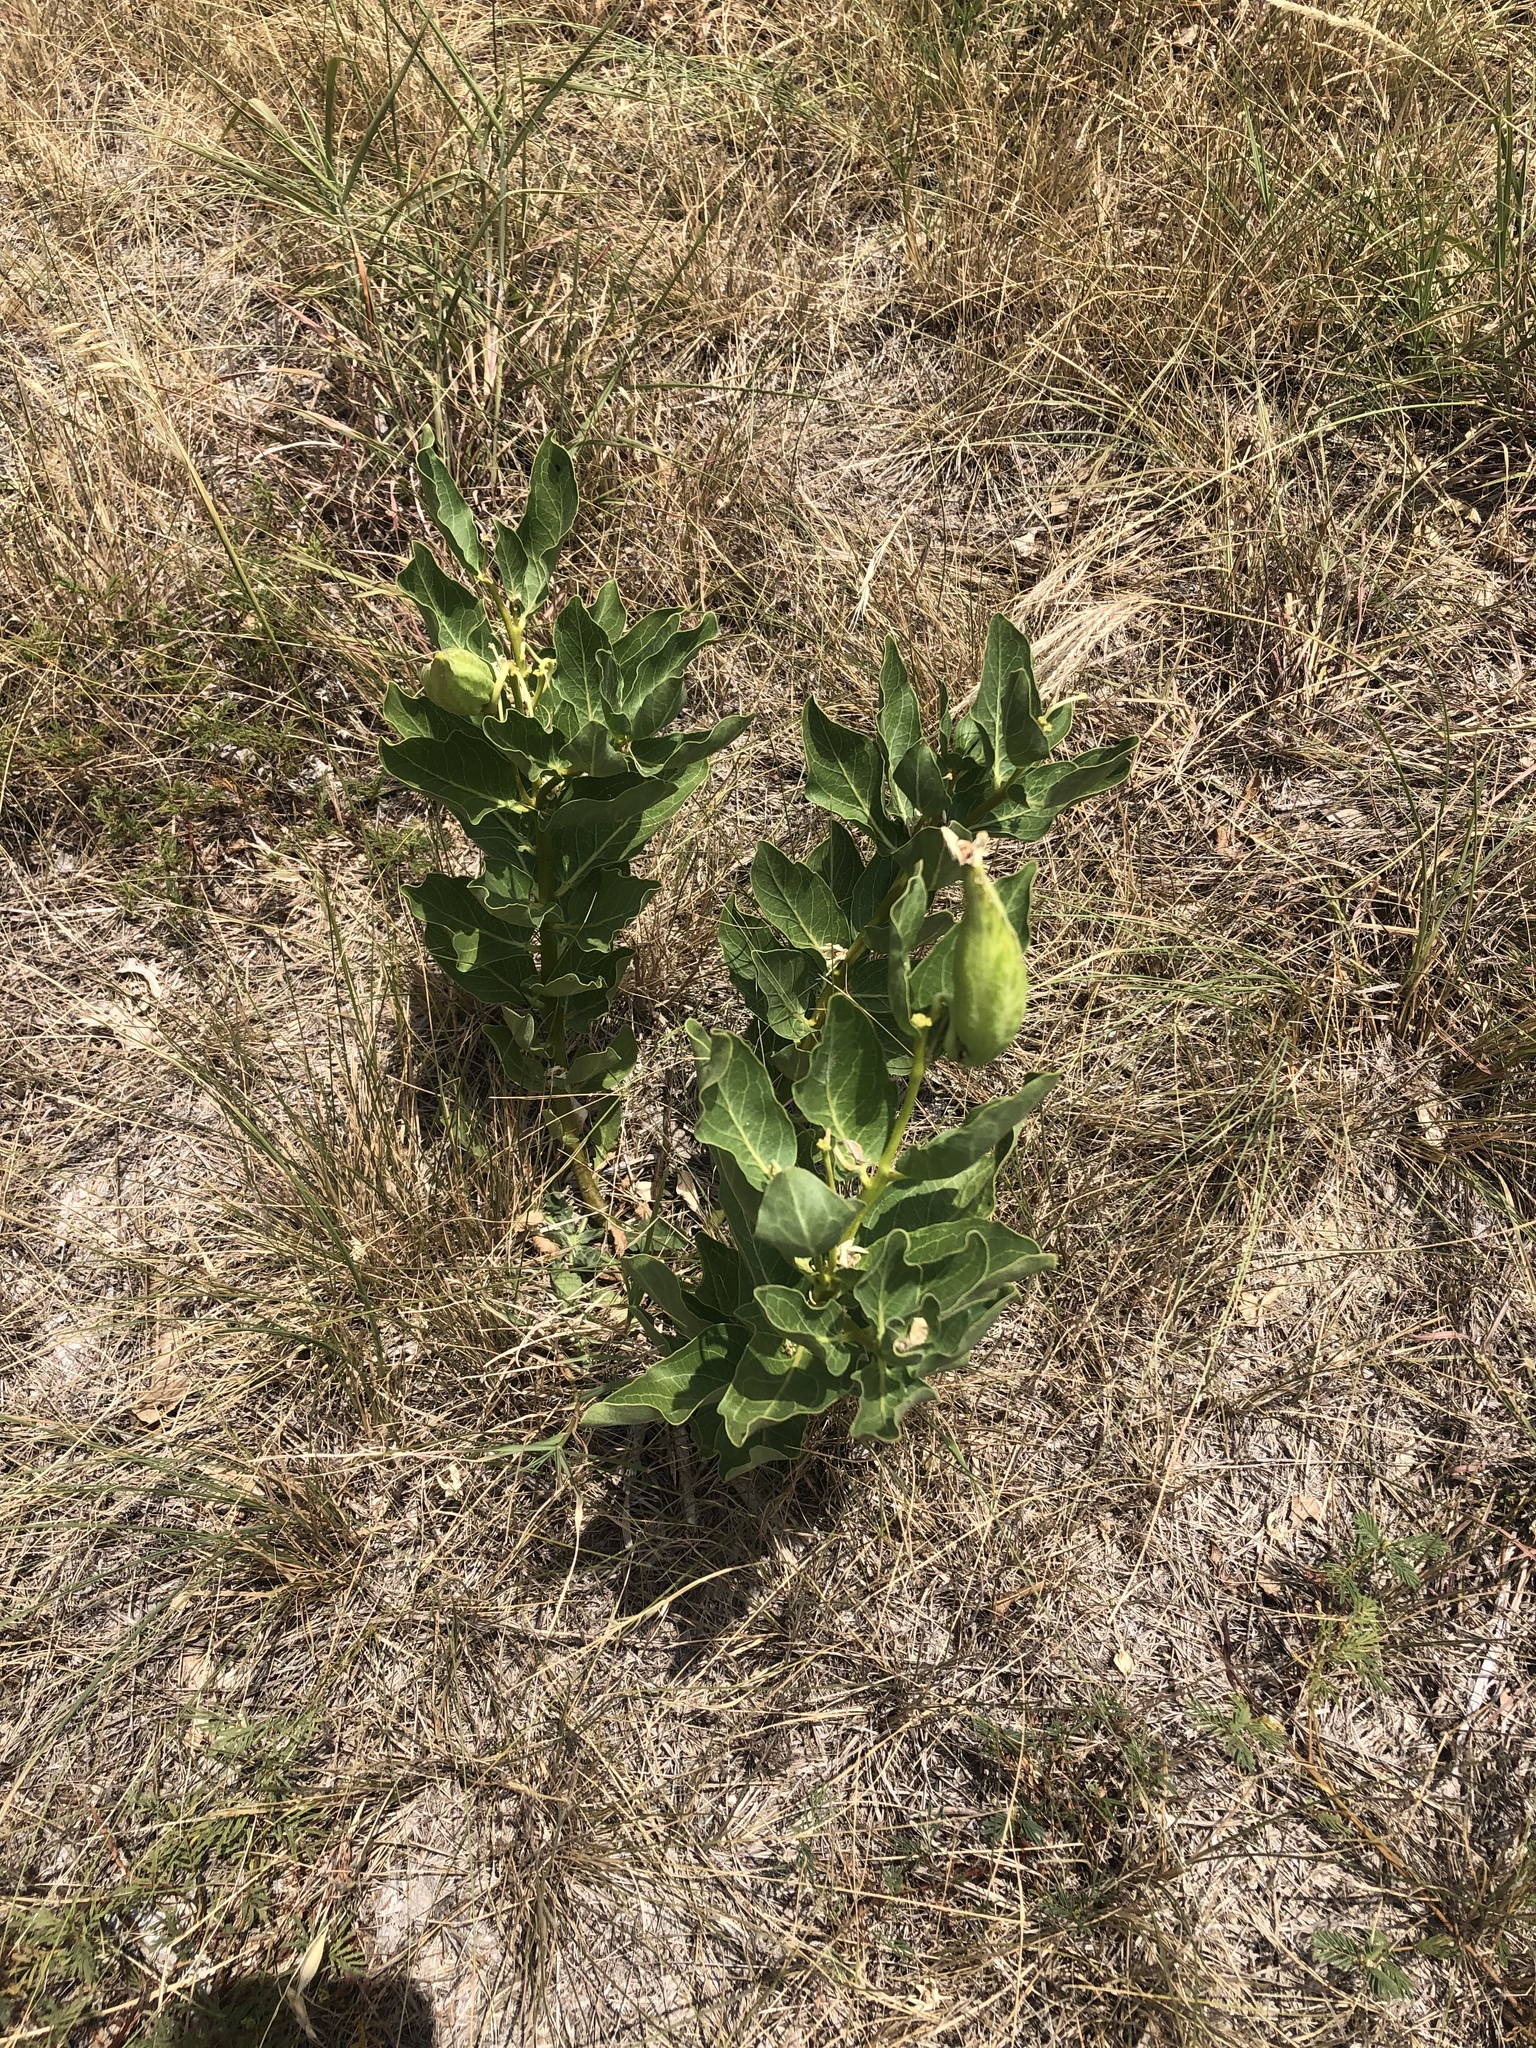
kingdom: Plantae
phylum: Tracheophyta
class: Magnoliopsida
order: Gentianales
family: Apocynaceae
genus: Asclepias
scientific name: Asclepias viridis
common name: Antelope-horns
